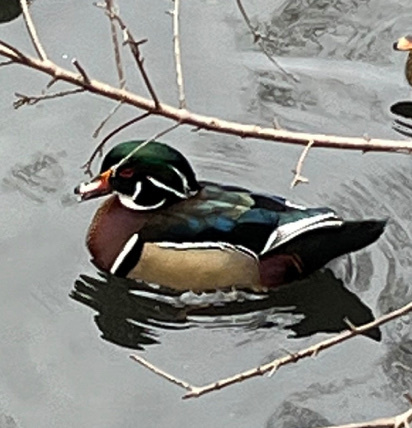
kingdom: Animalia
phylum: Chordata
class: Aves
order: Anseriformes
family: Anatidae
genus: Aix
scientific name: Aix sponsa
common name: Wood duck
